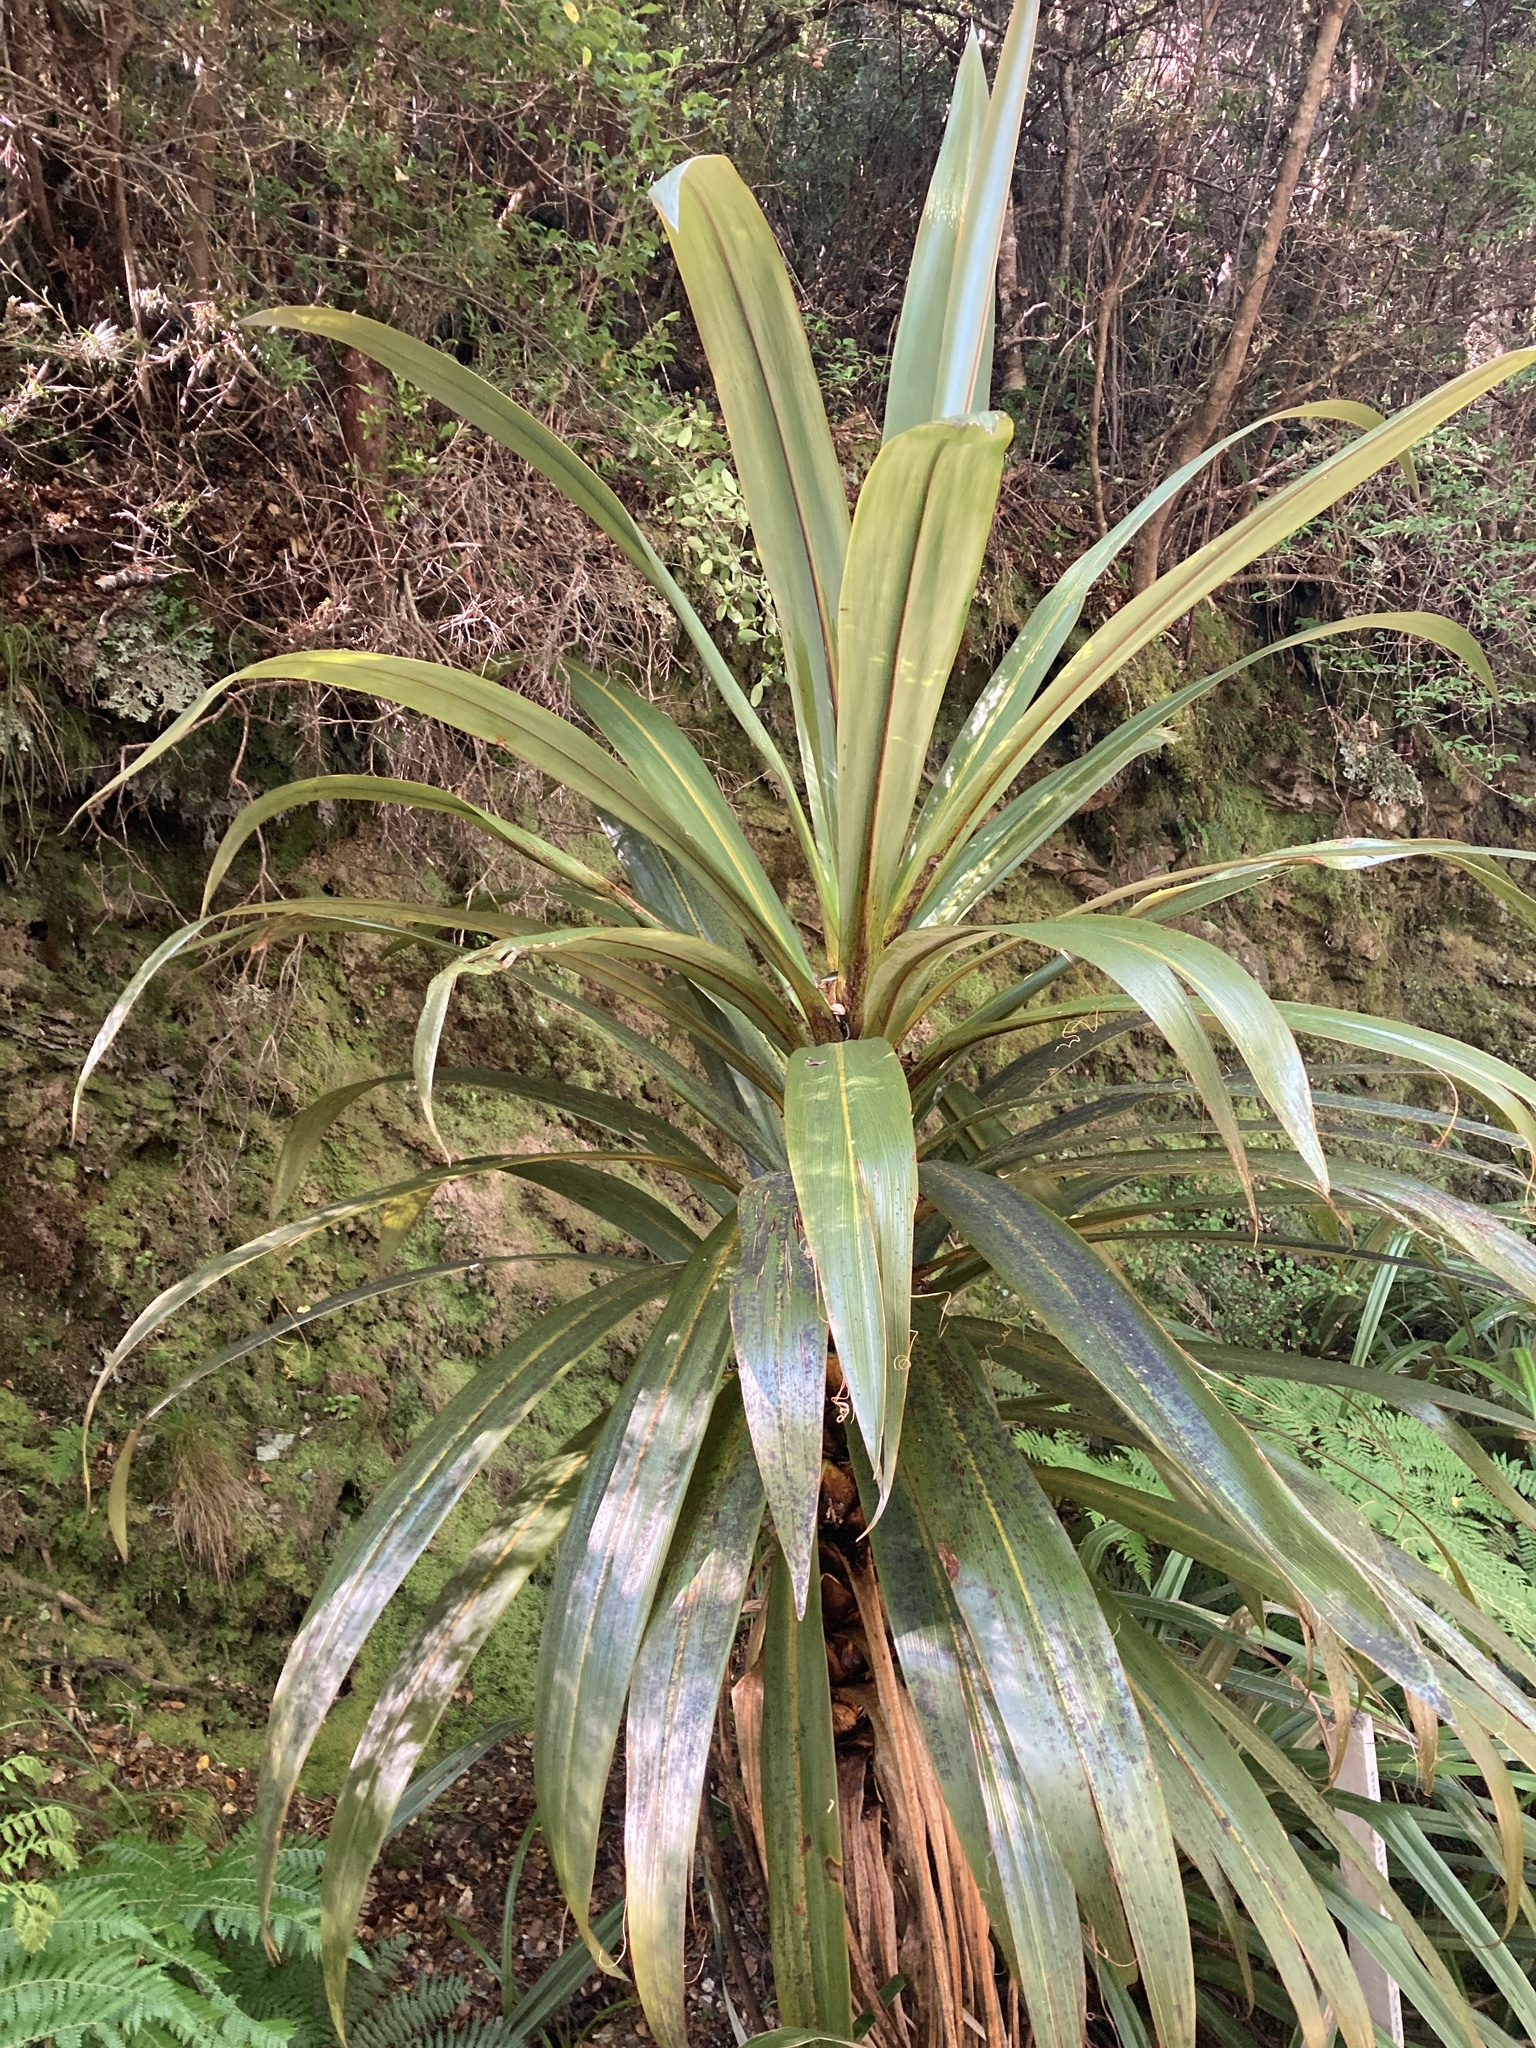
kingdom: Plantae
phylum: Tracheophyta
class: Liliopsida
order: Asparagales
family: Asparagaceae
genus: Cordyline
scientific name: Cordyline indivisa
